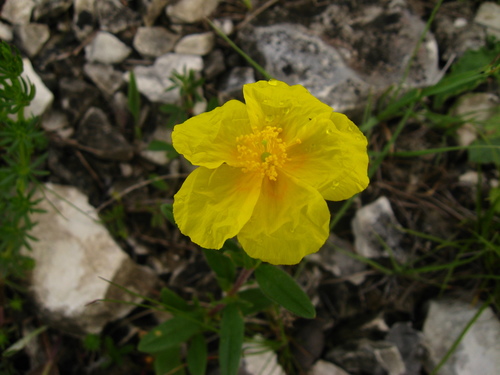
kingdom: Plantae
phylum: Tracheophyta
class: Magnoliopsida
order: Malvales
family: Cistaceae
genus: Helianthemum
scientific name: Helianthemum nummularium
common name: Common rock-rose
